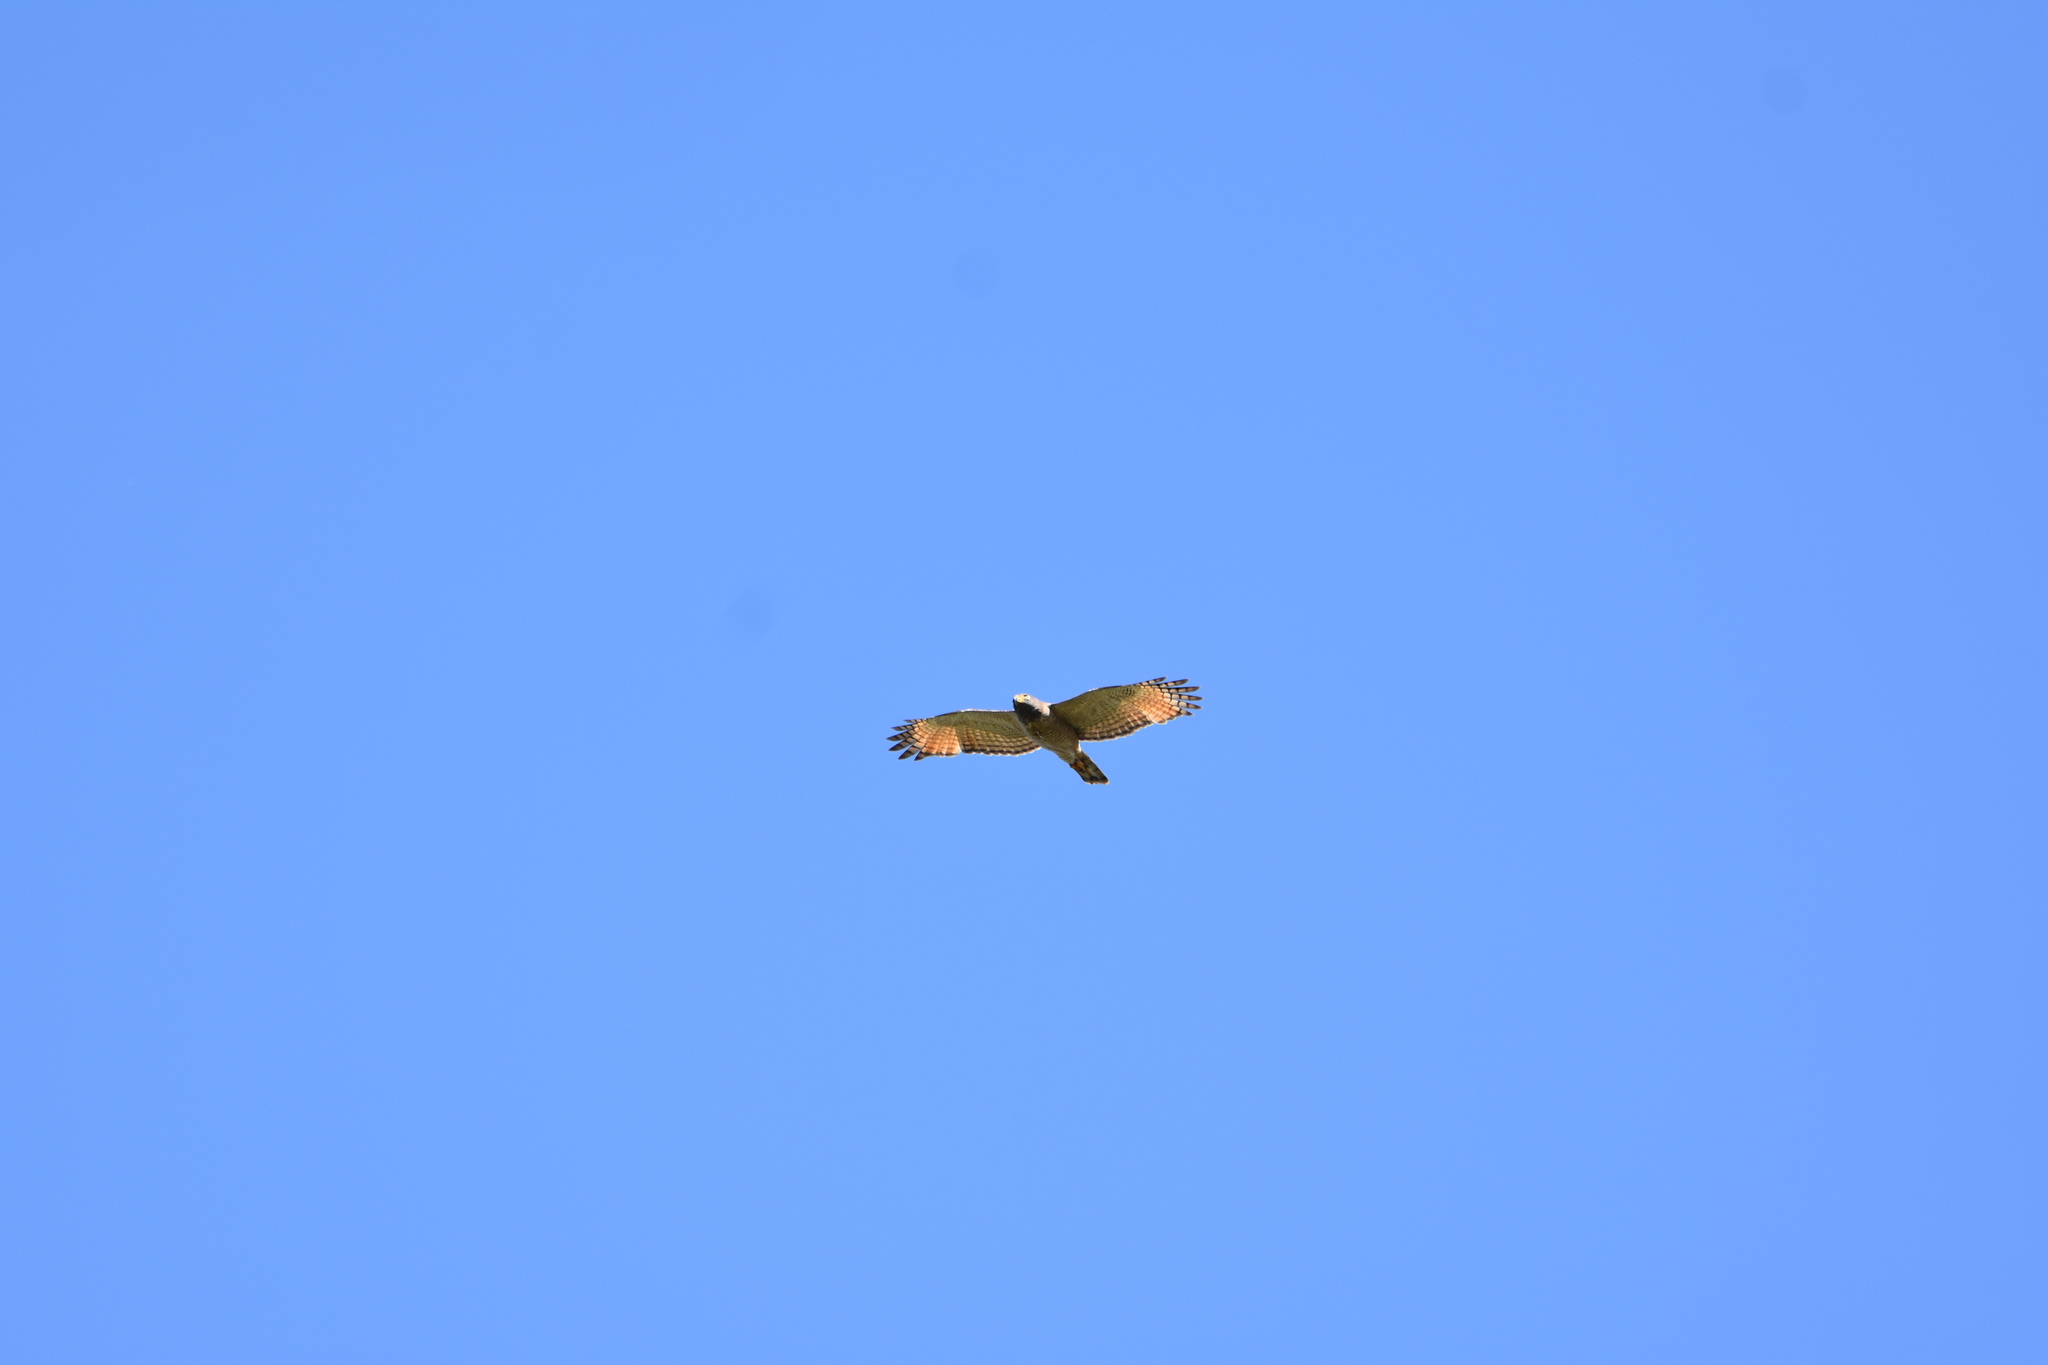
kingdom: Animalia
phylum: Chordata
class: Aves
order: Accipitriformes
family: Accipitridae
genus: Rupornis
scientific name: Rupornis magnirostris
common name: Roadside hawk
